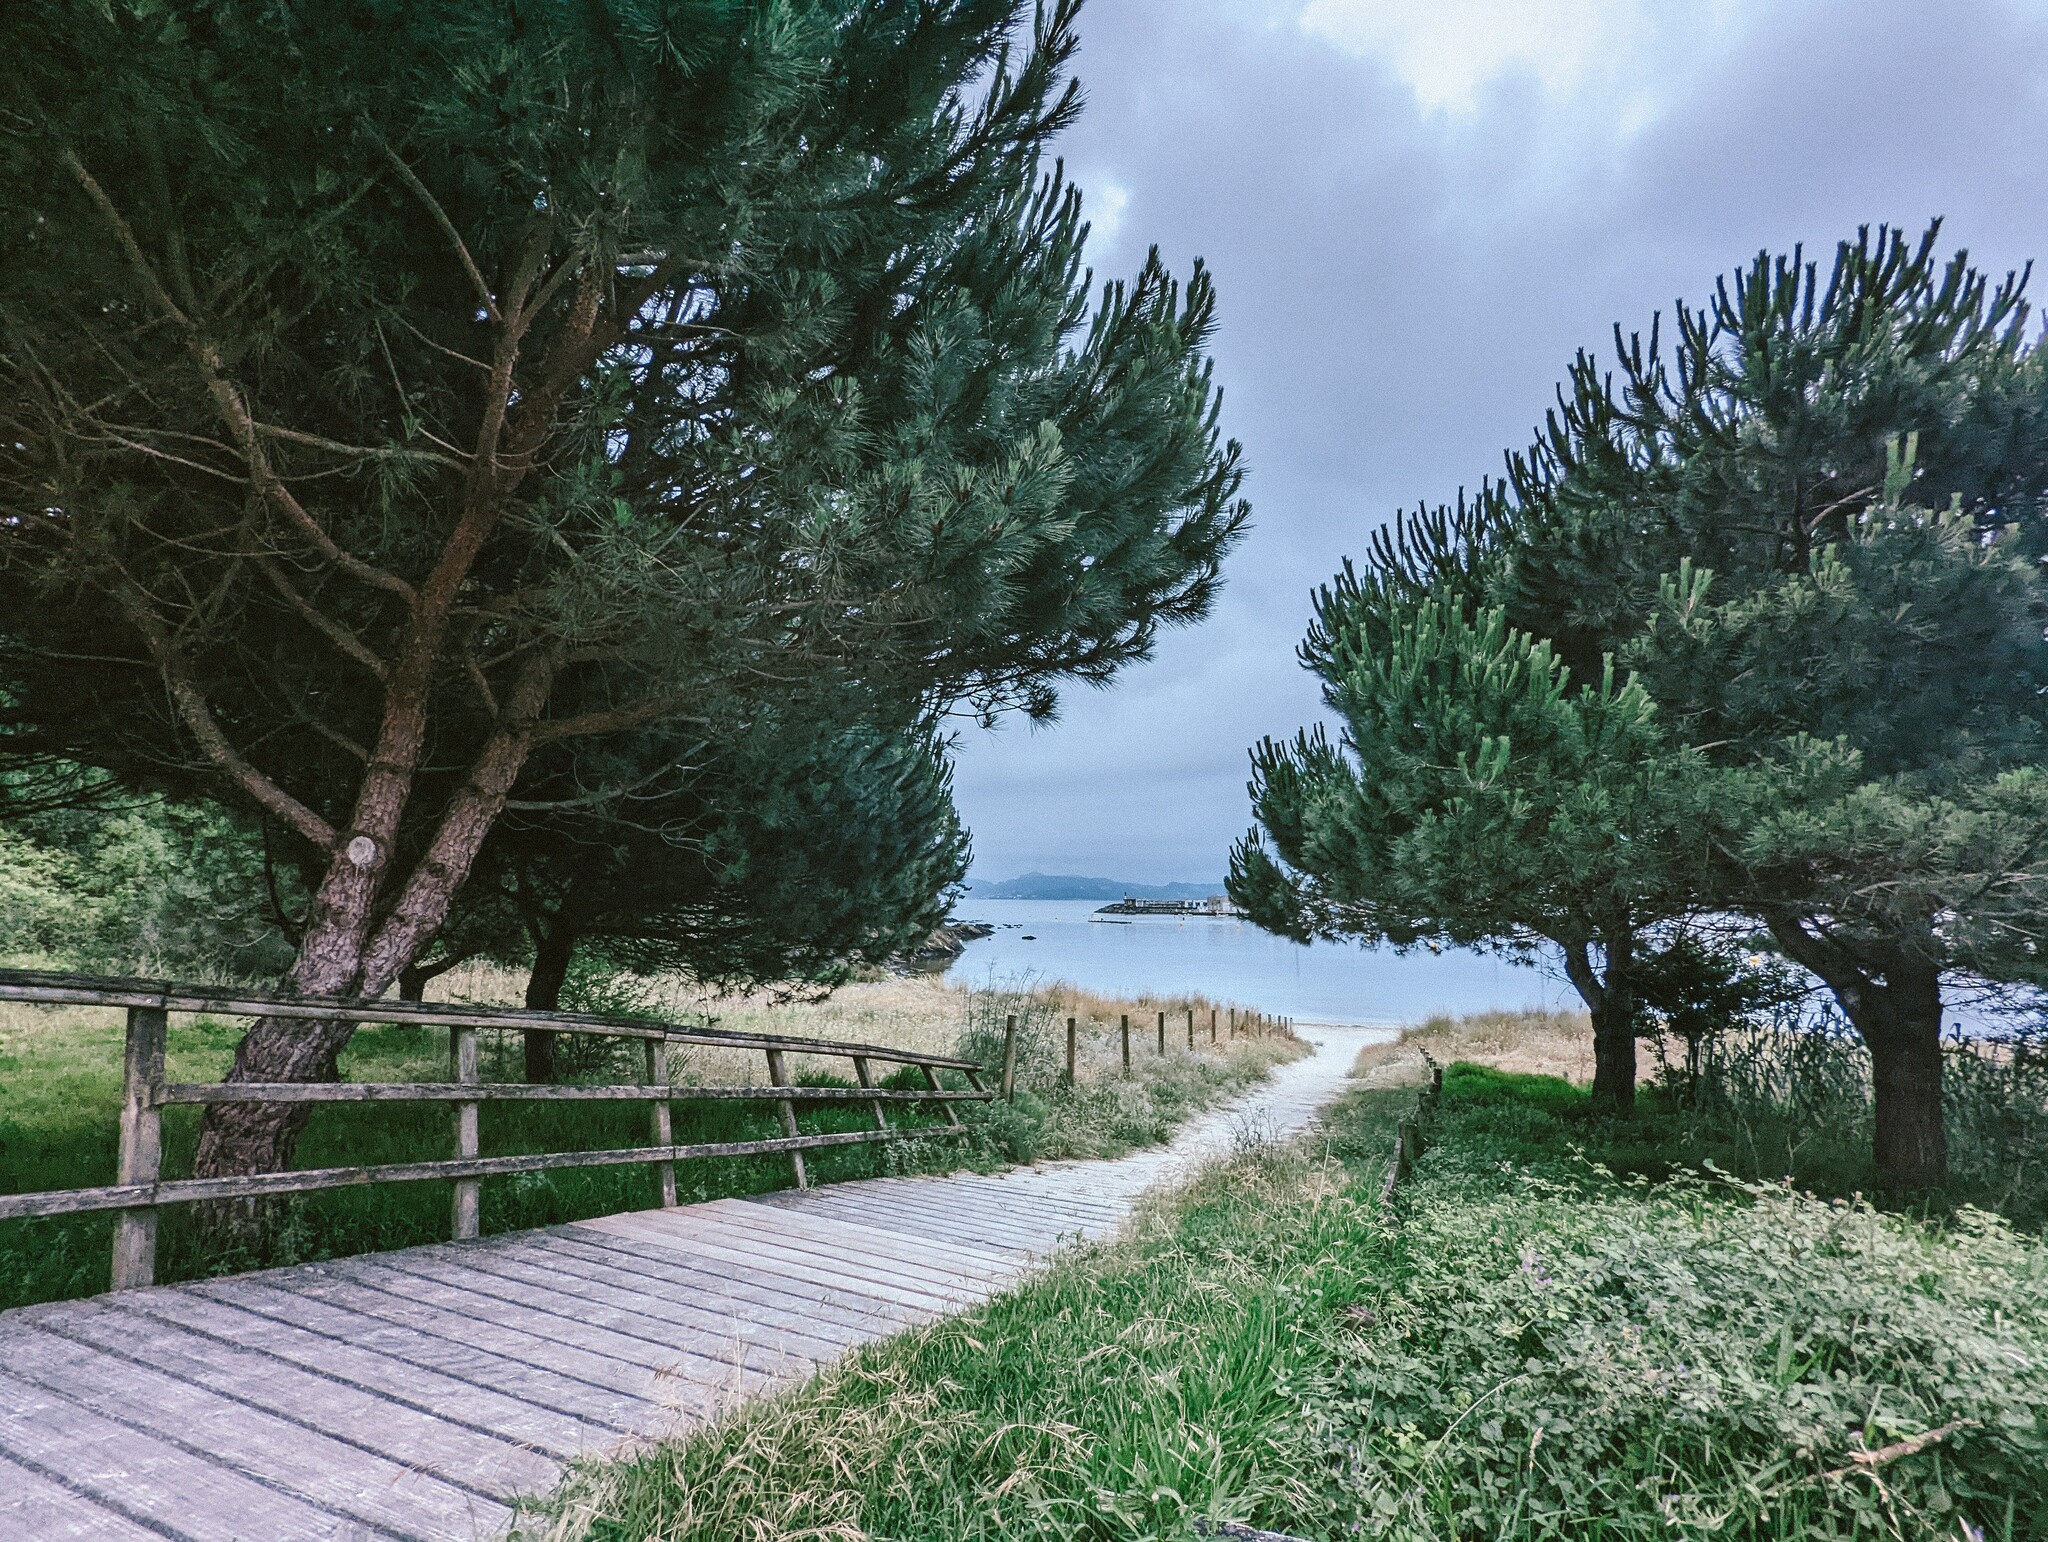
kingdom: Plantae
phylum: Tracheophyta
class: Pinopsida
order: Pinales
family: Pinaceae
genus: Pinus
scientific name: Pinus pinea
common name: Italian stone pine
